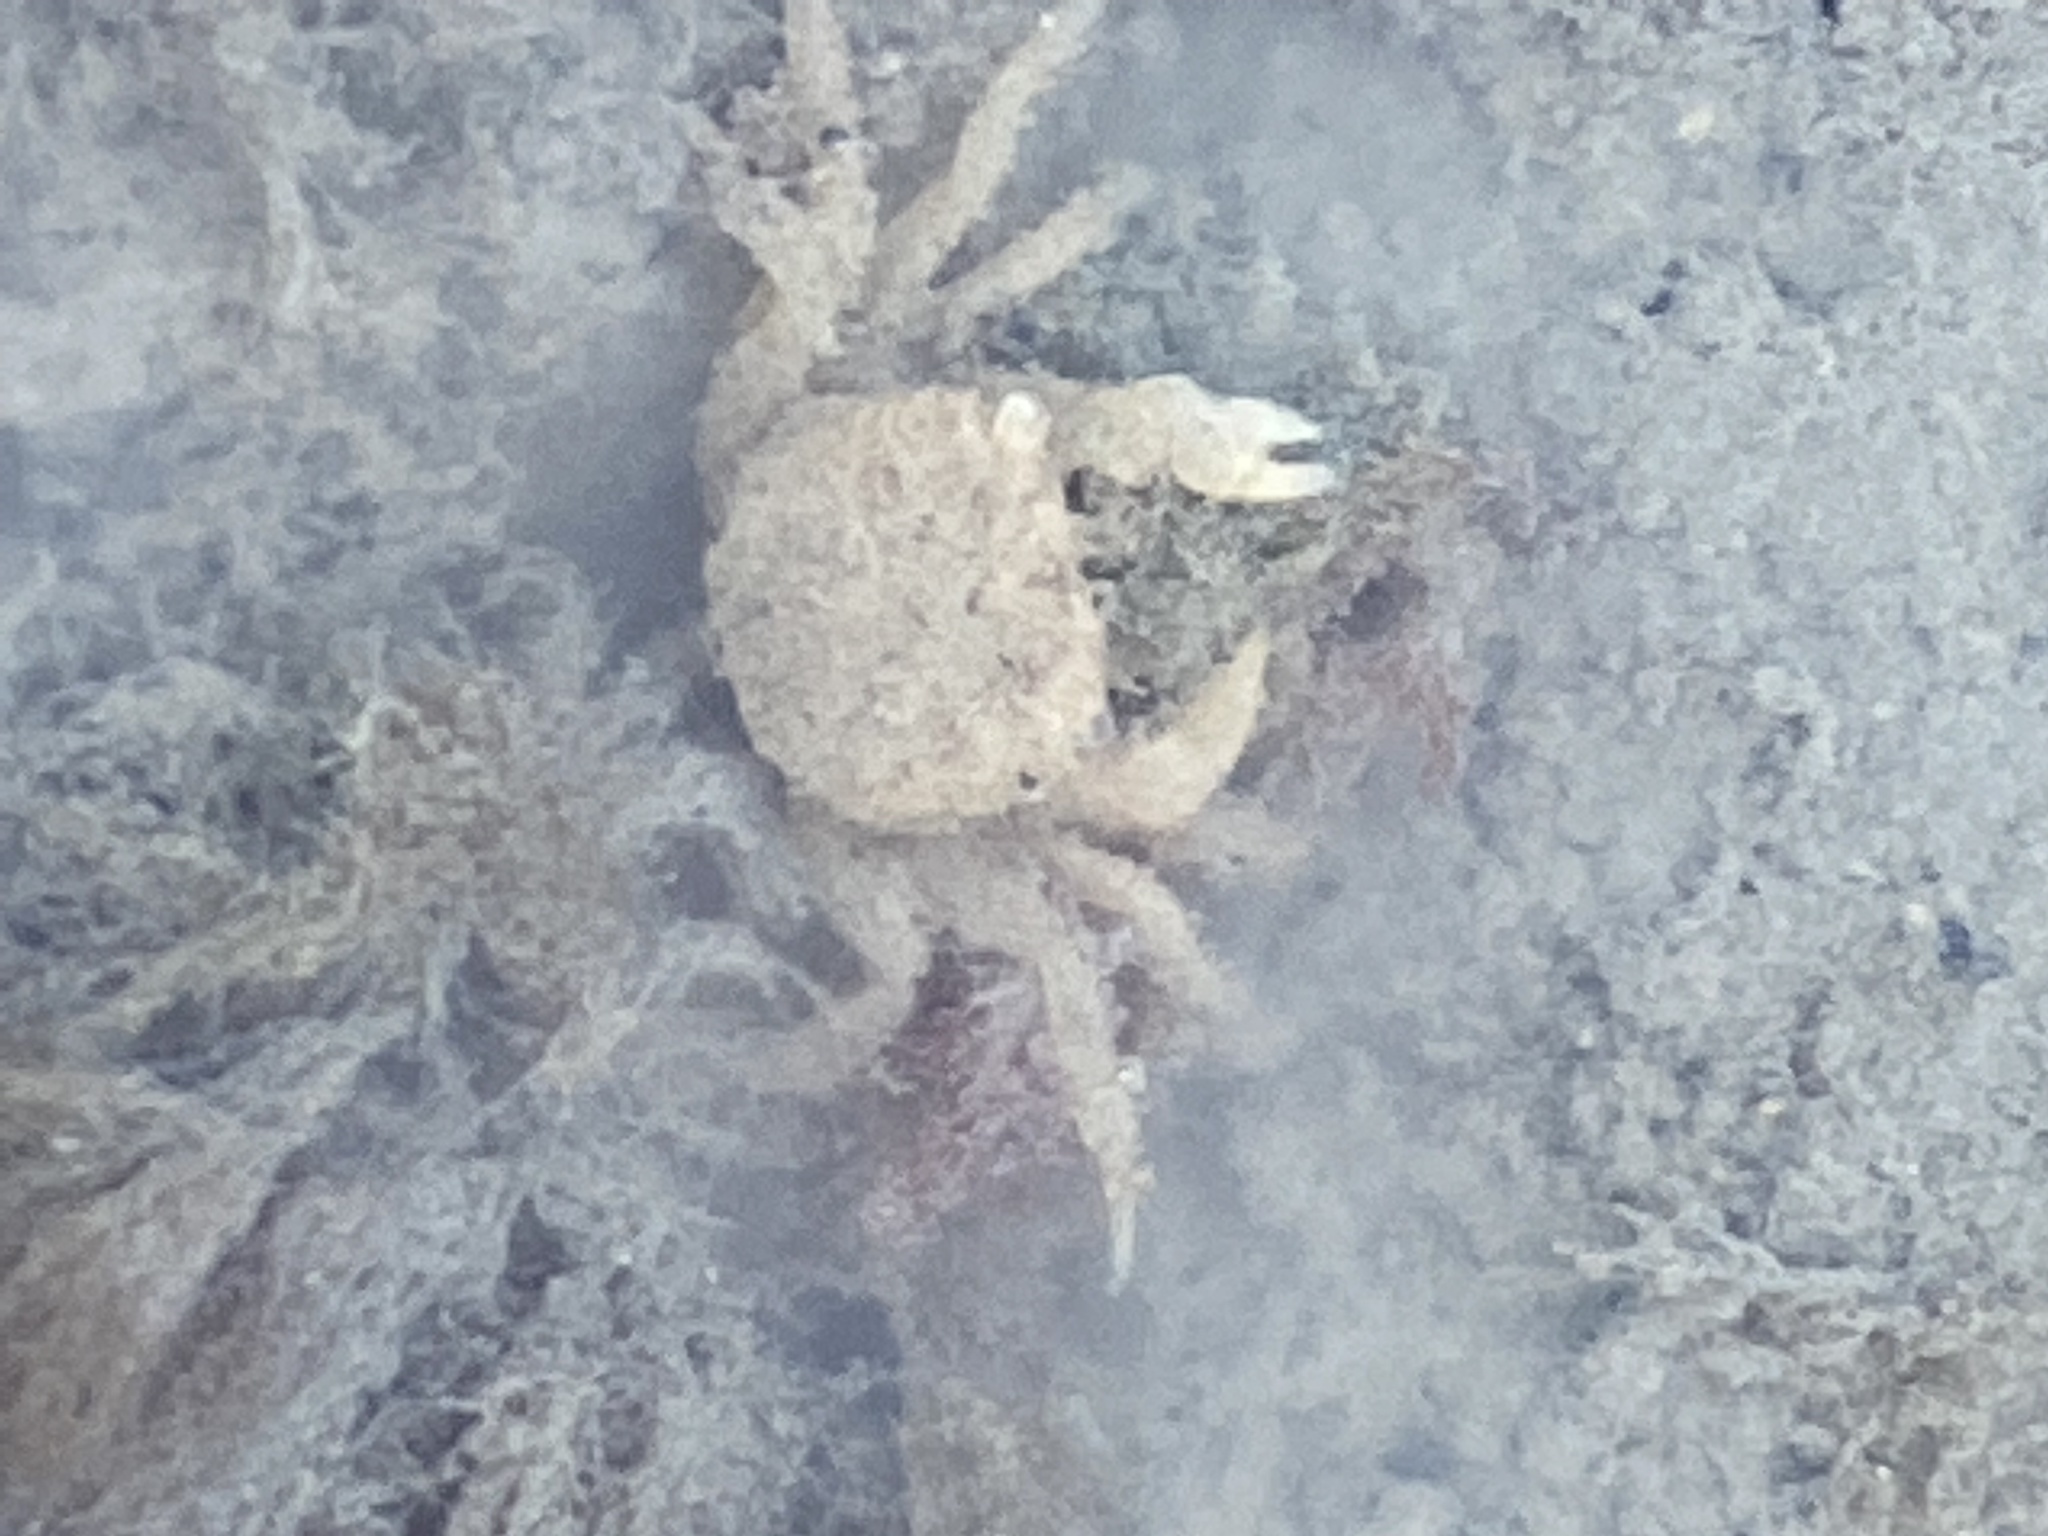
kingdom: Animalia
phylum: Arthropoda
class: Malacostraca
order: Decapoda
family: Varunidae
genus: Hemigrapsus
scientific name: Hemigrapsus oregonensis
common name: Yellow shore crab
